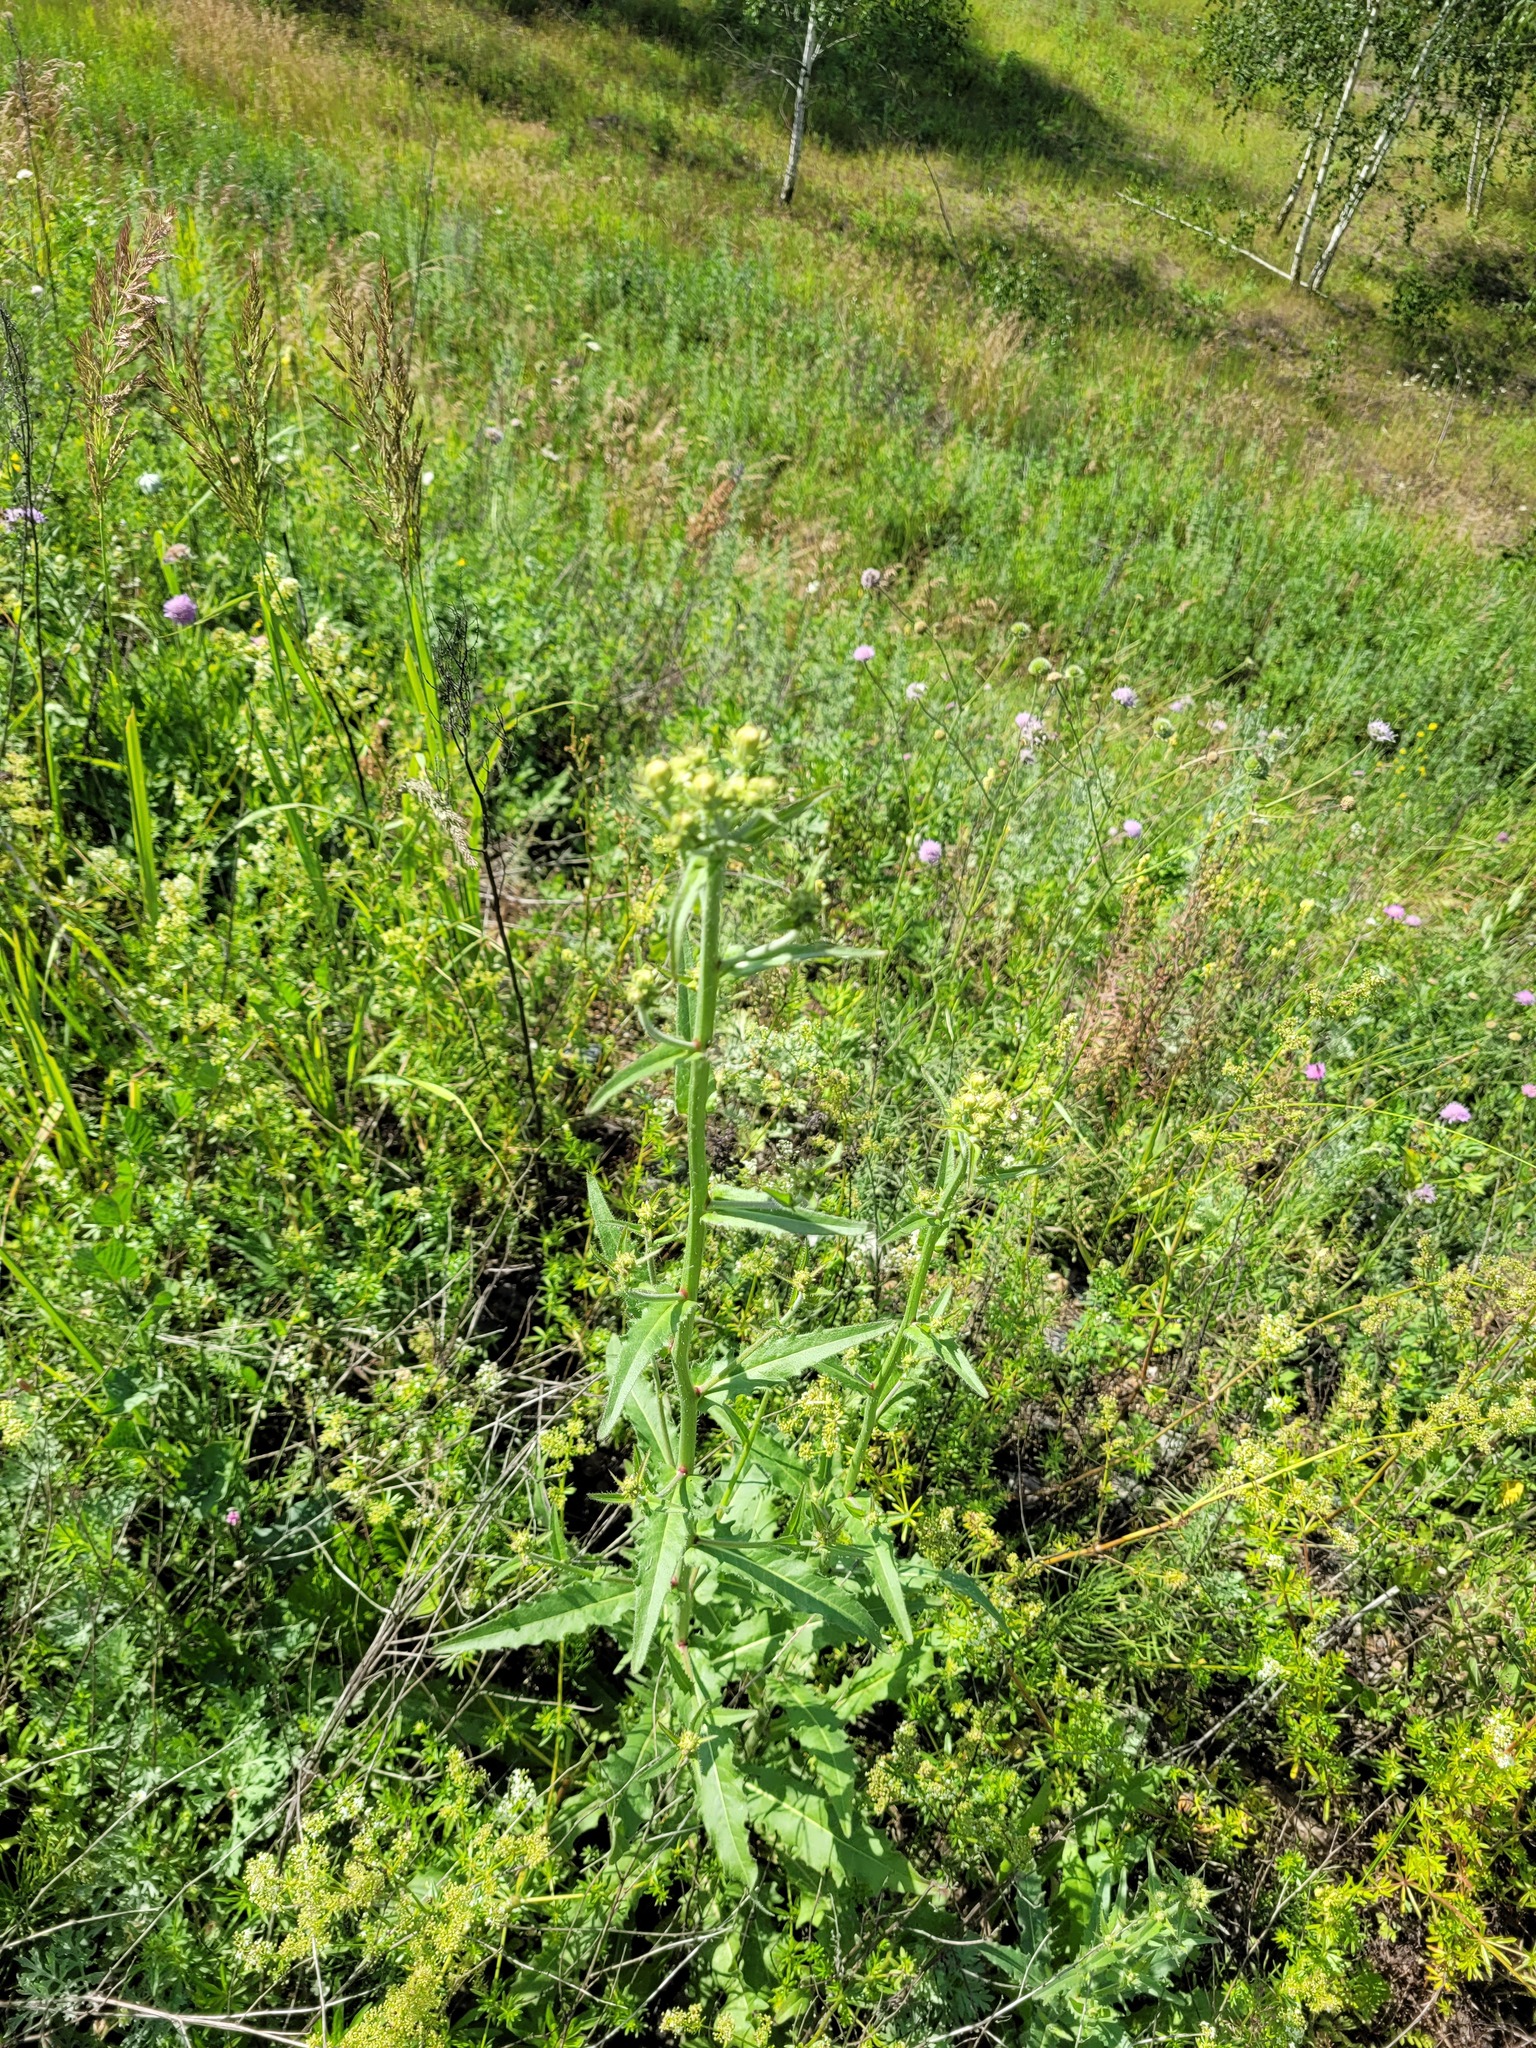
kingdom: Plantae
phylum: Tracheophyta
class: Magnoliopsida
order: Asterales
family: Asteraceae
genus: Picris
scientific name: Picris hieracioides
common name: Hawkweed oxtongue
